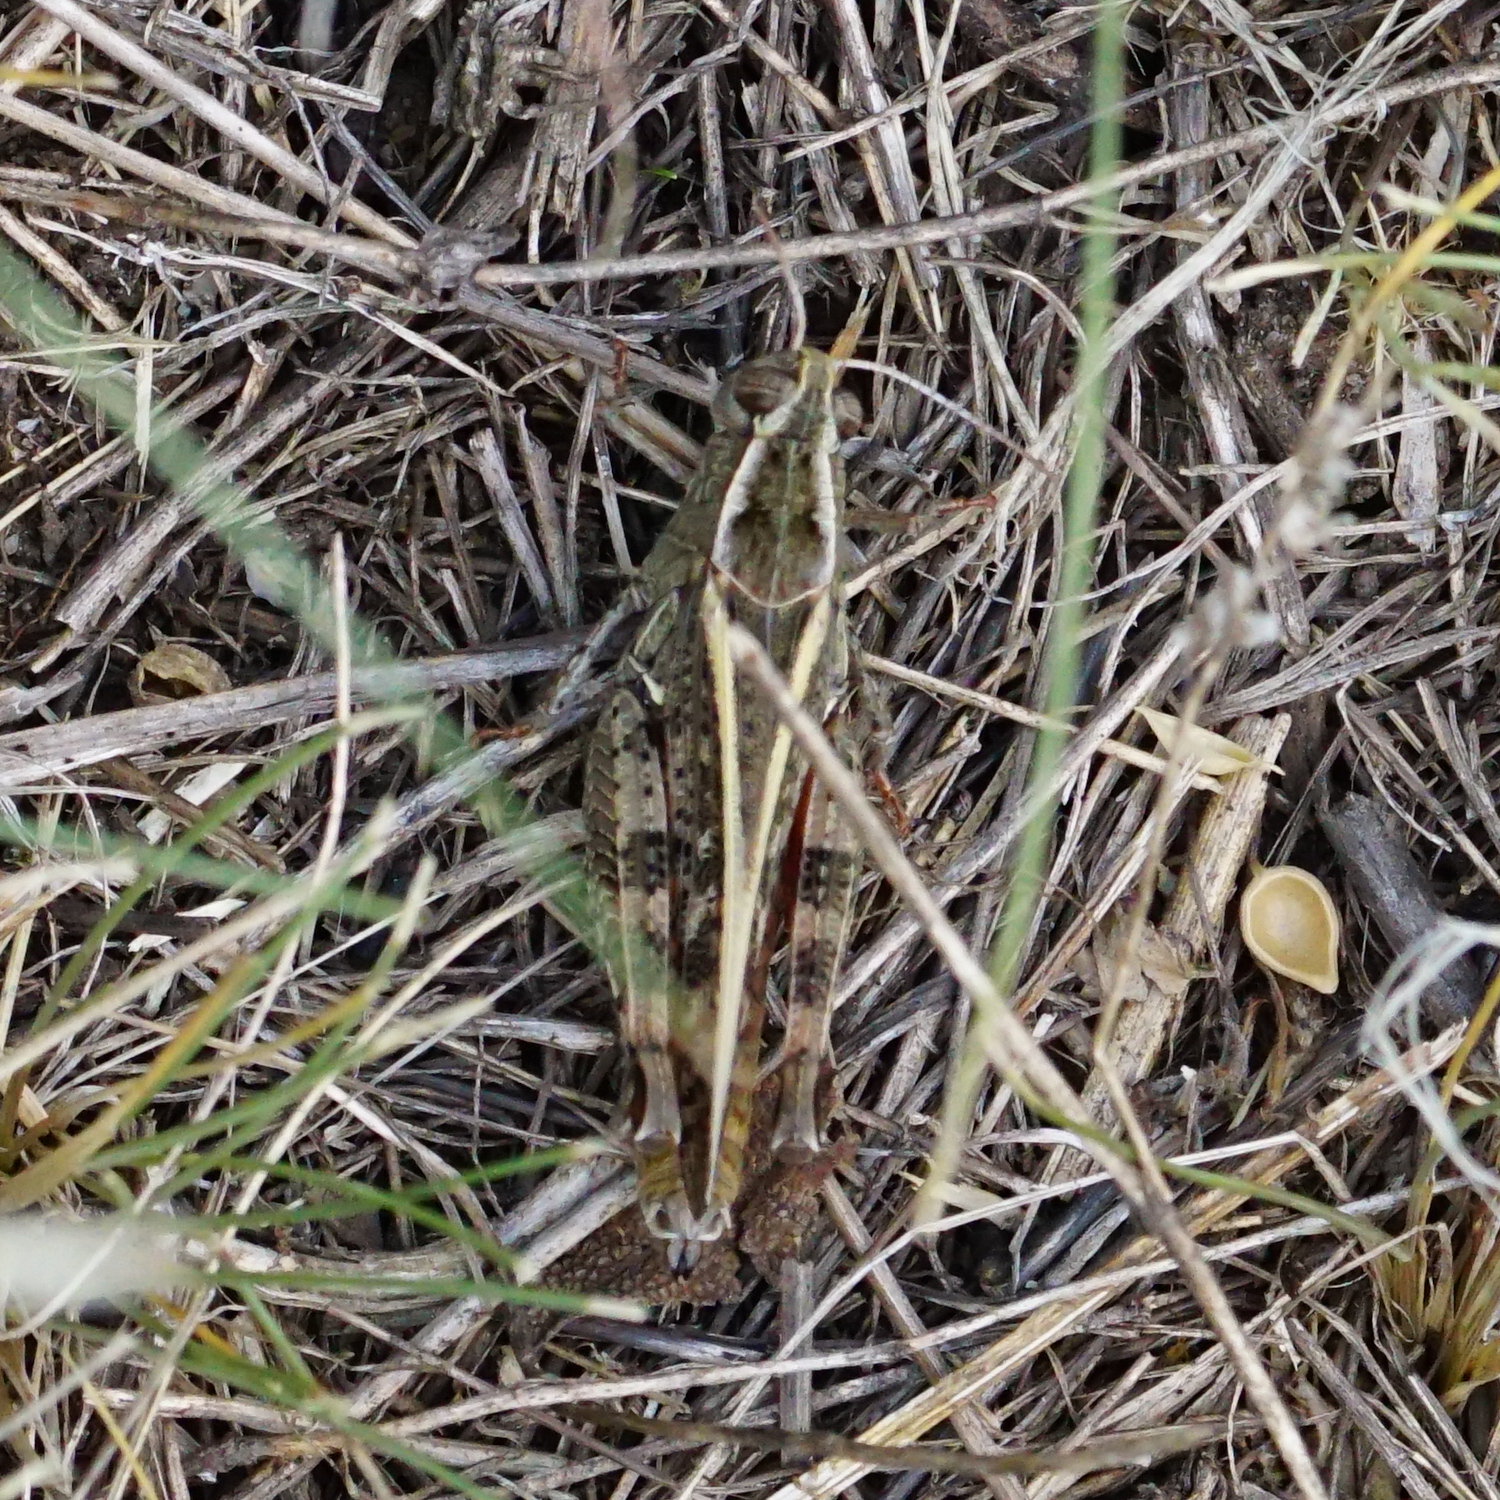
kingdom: Animalia
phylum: Arthropoda
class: Insecta
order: Orthoptera
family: Acrididae
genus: Calliptamus
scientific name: Calliptamus italicus
